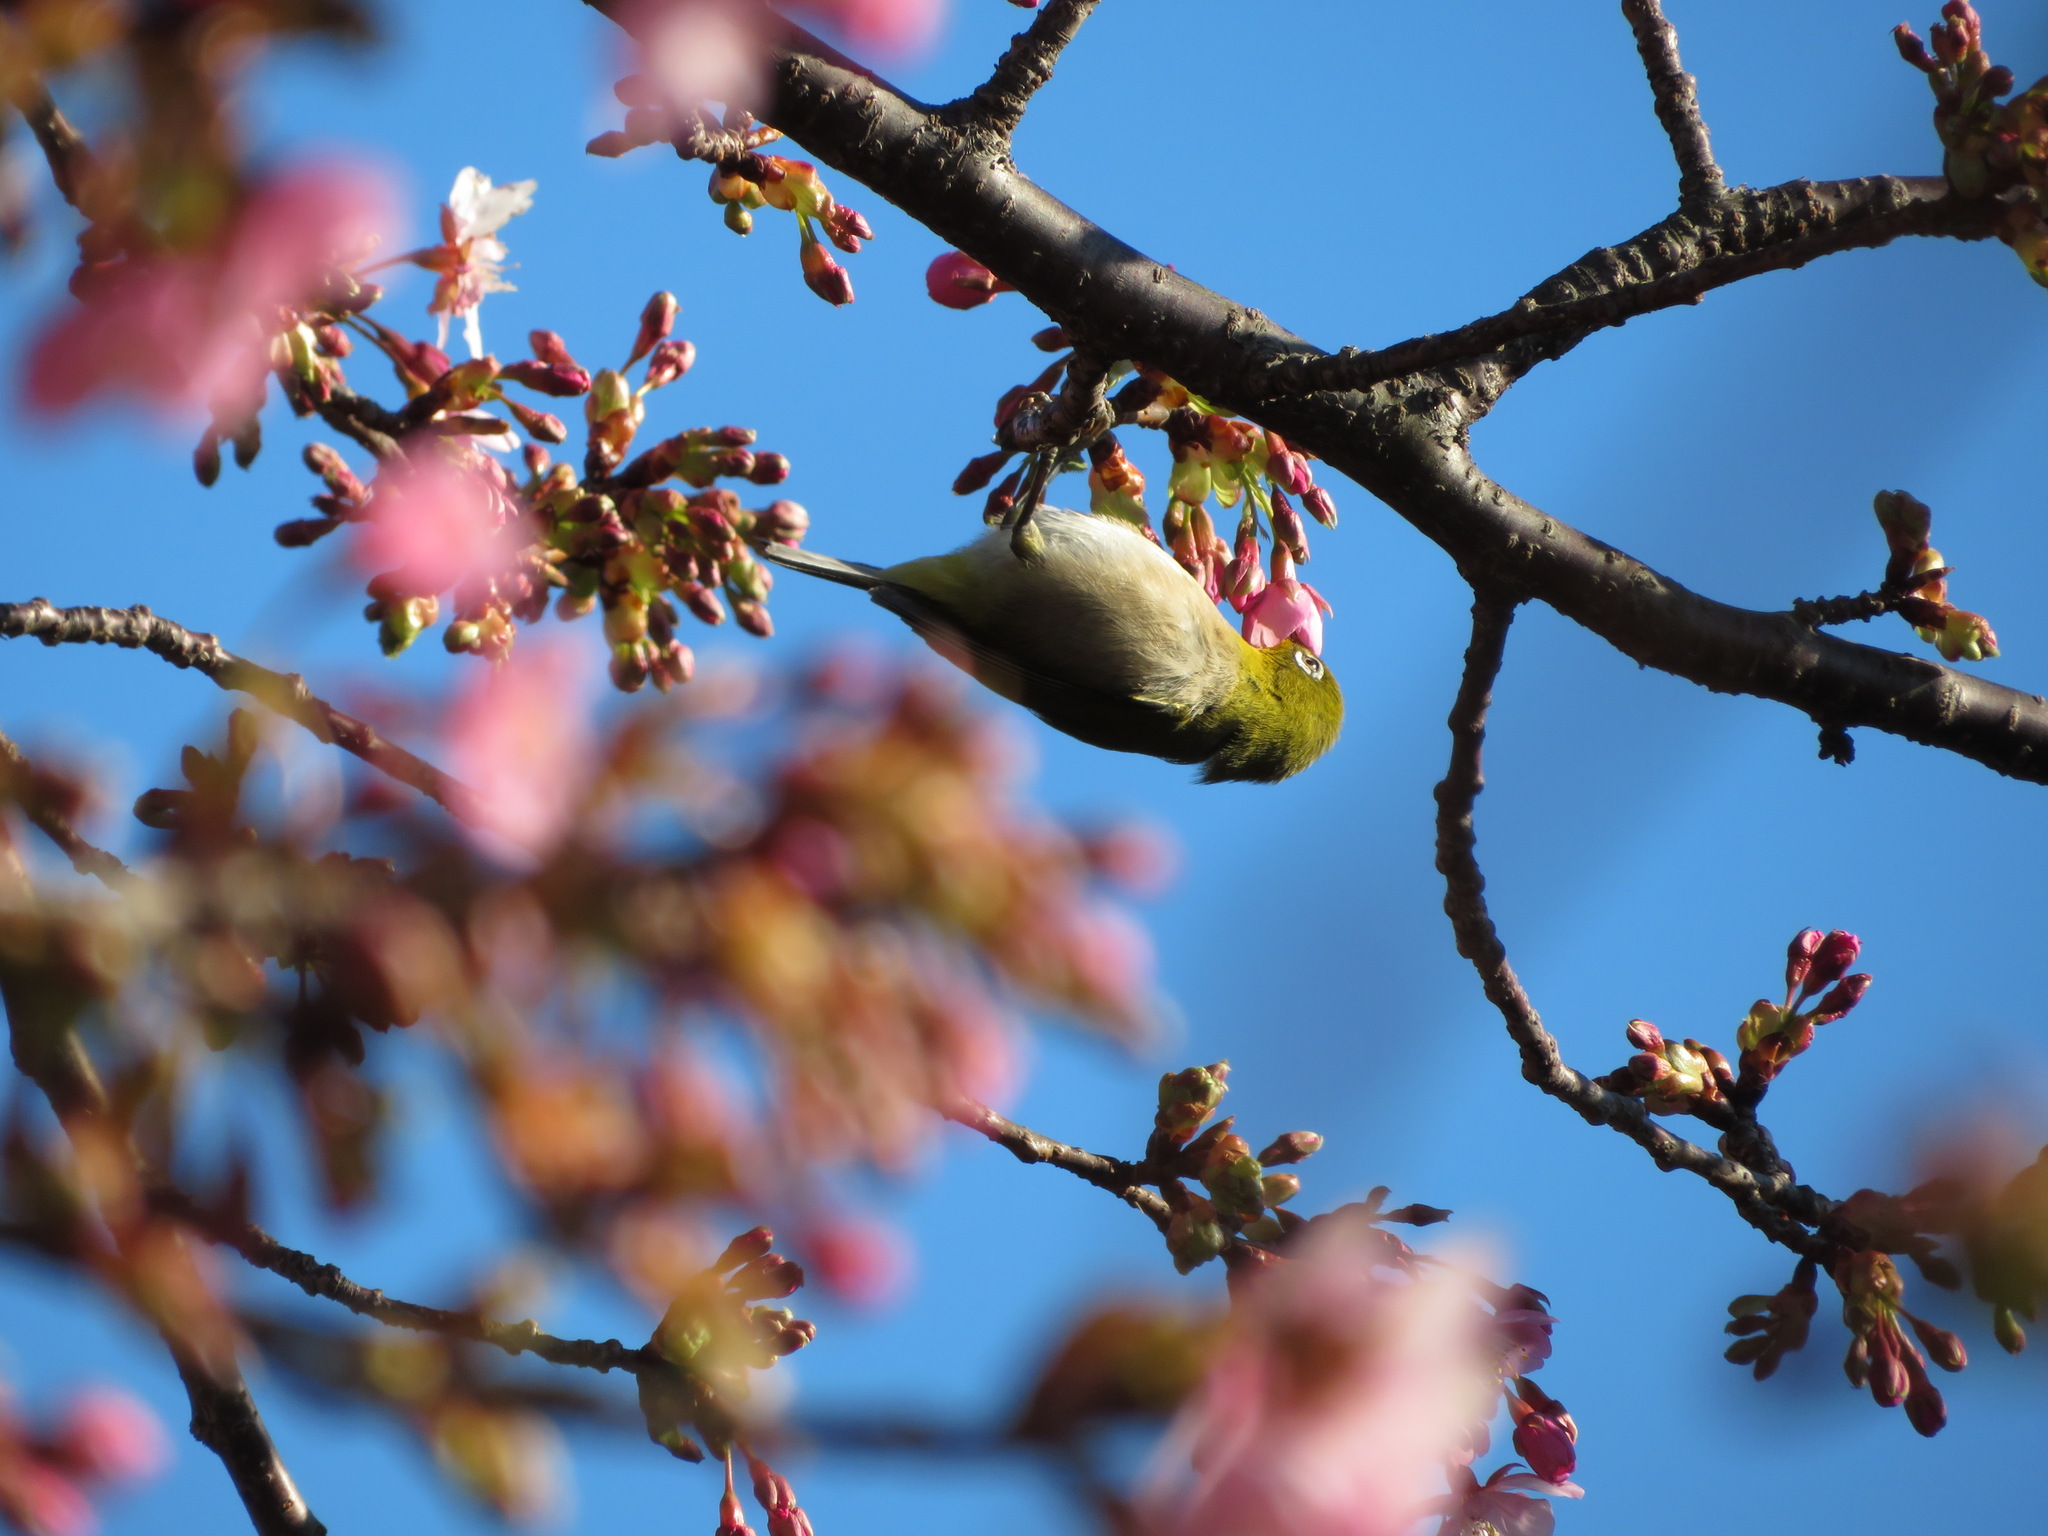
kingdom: Animalia
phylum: Chordata
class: Aves
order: Passeriformes
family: Zosteropidae
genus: Zosterops
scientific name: Zosterops japonicus
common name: Japanese white-eye
